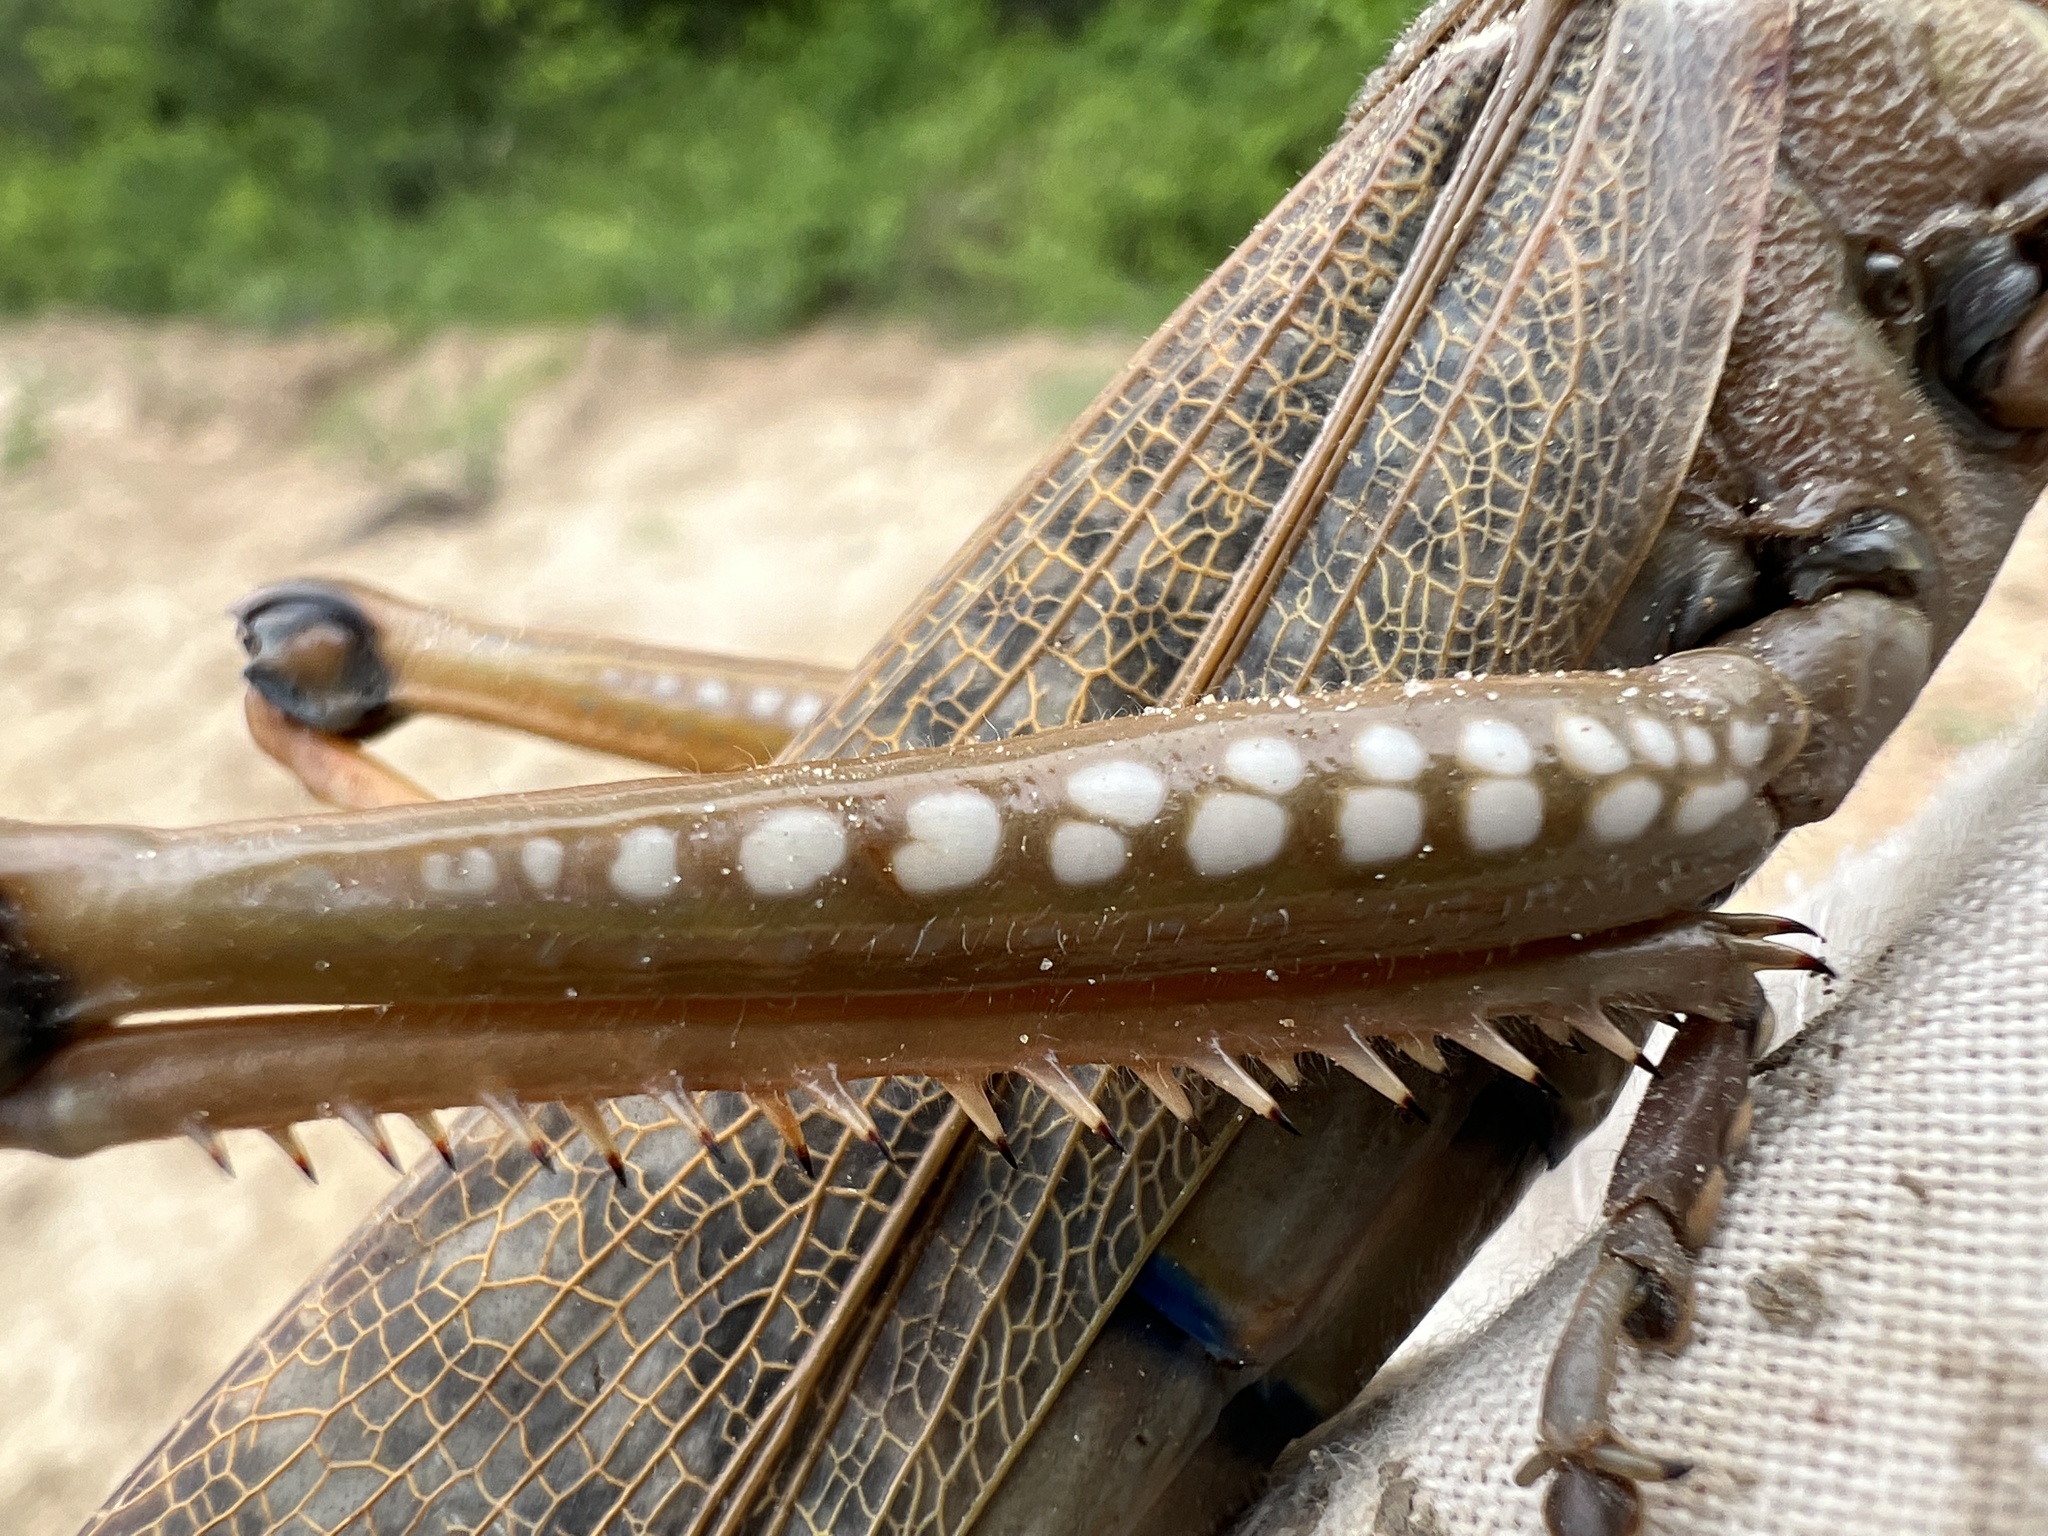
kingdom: Animalia
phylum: Arthropoda
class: Insecta
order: Orthoptera
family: Romaleidae
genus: Tropidacris
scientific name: Tropidacris collaris
